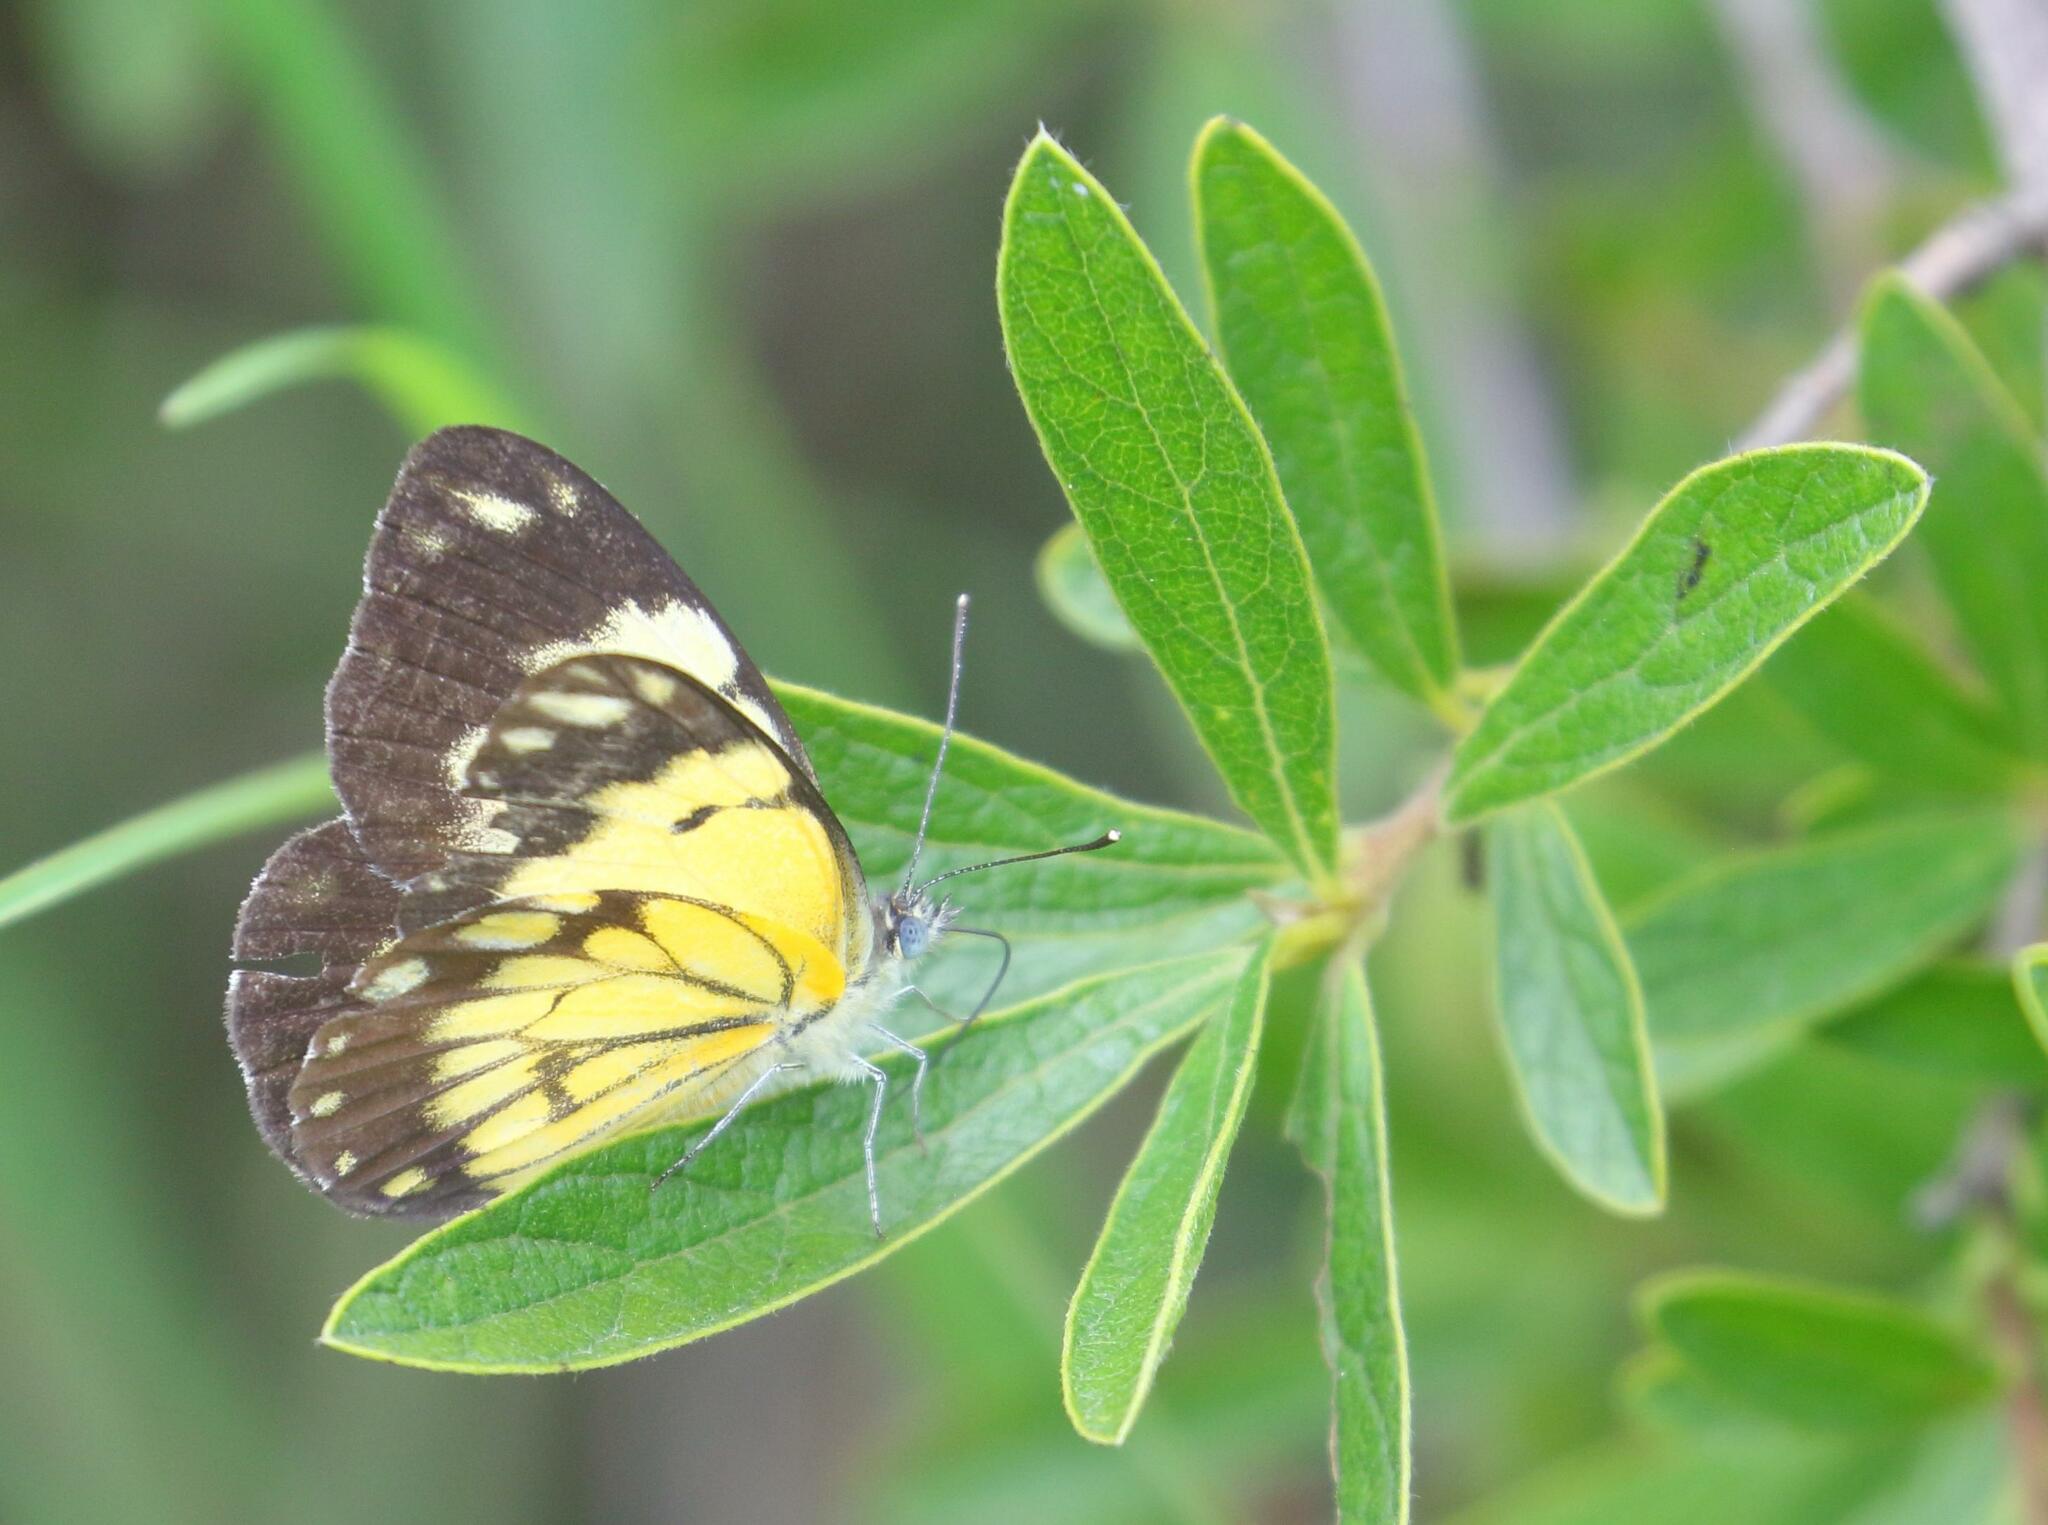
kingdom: Animalia
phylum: Arthropoda
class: Insecta
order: Lepidoptera
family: Pieridae
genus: Belenois
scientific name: Belenois creona
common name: African caper white
